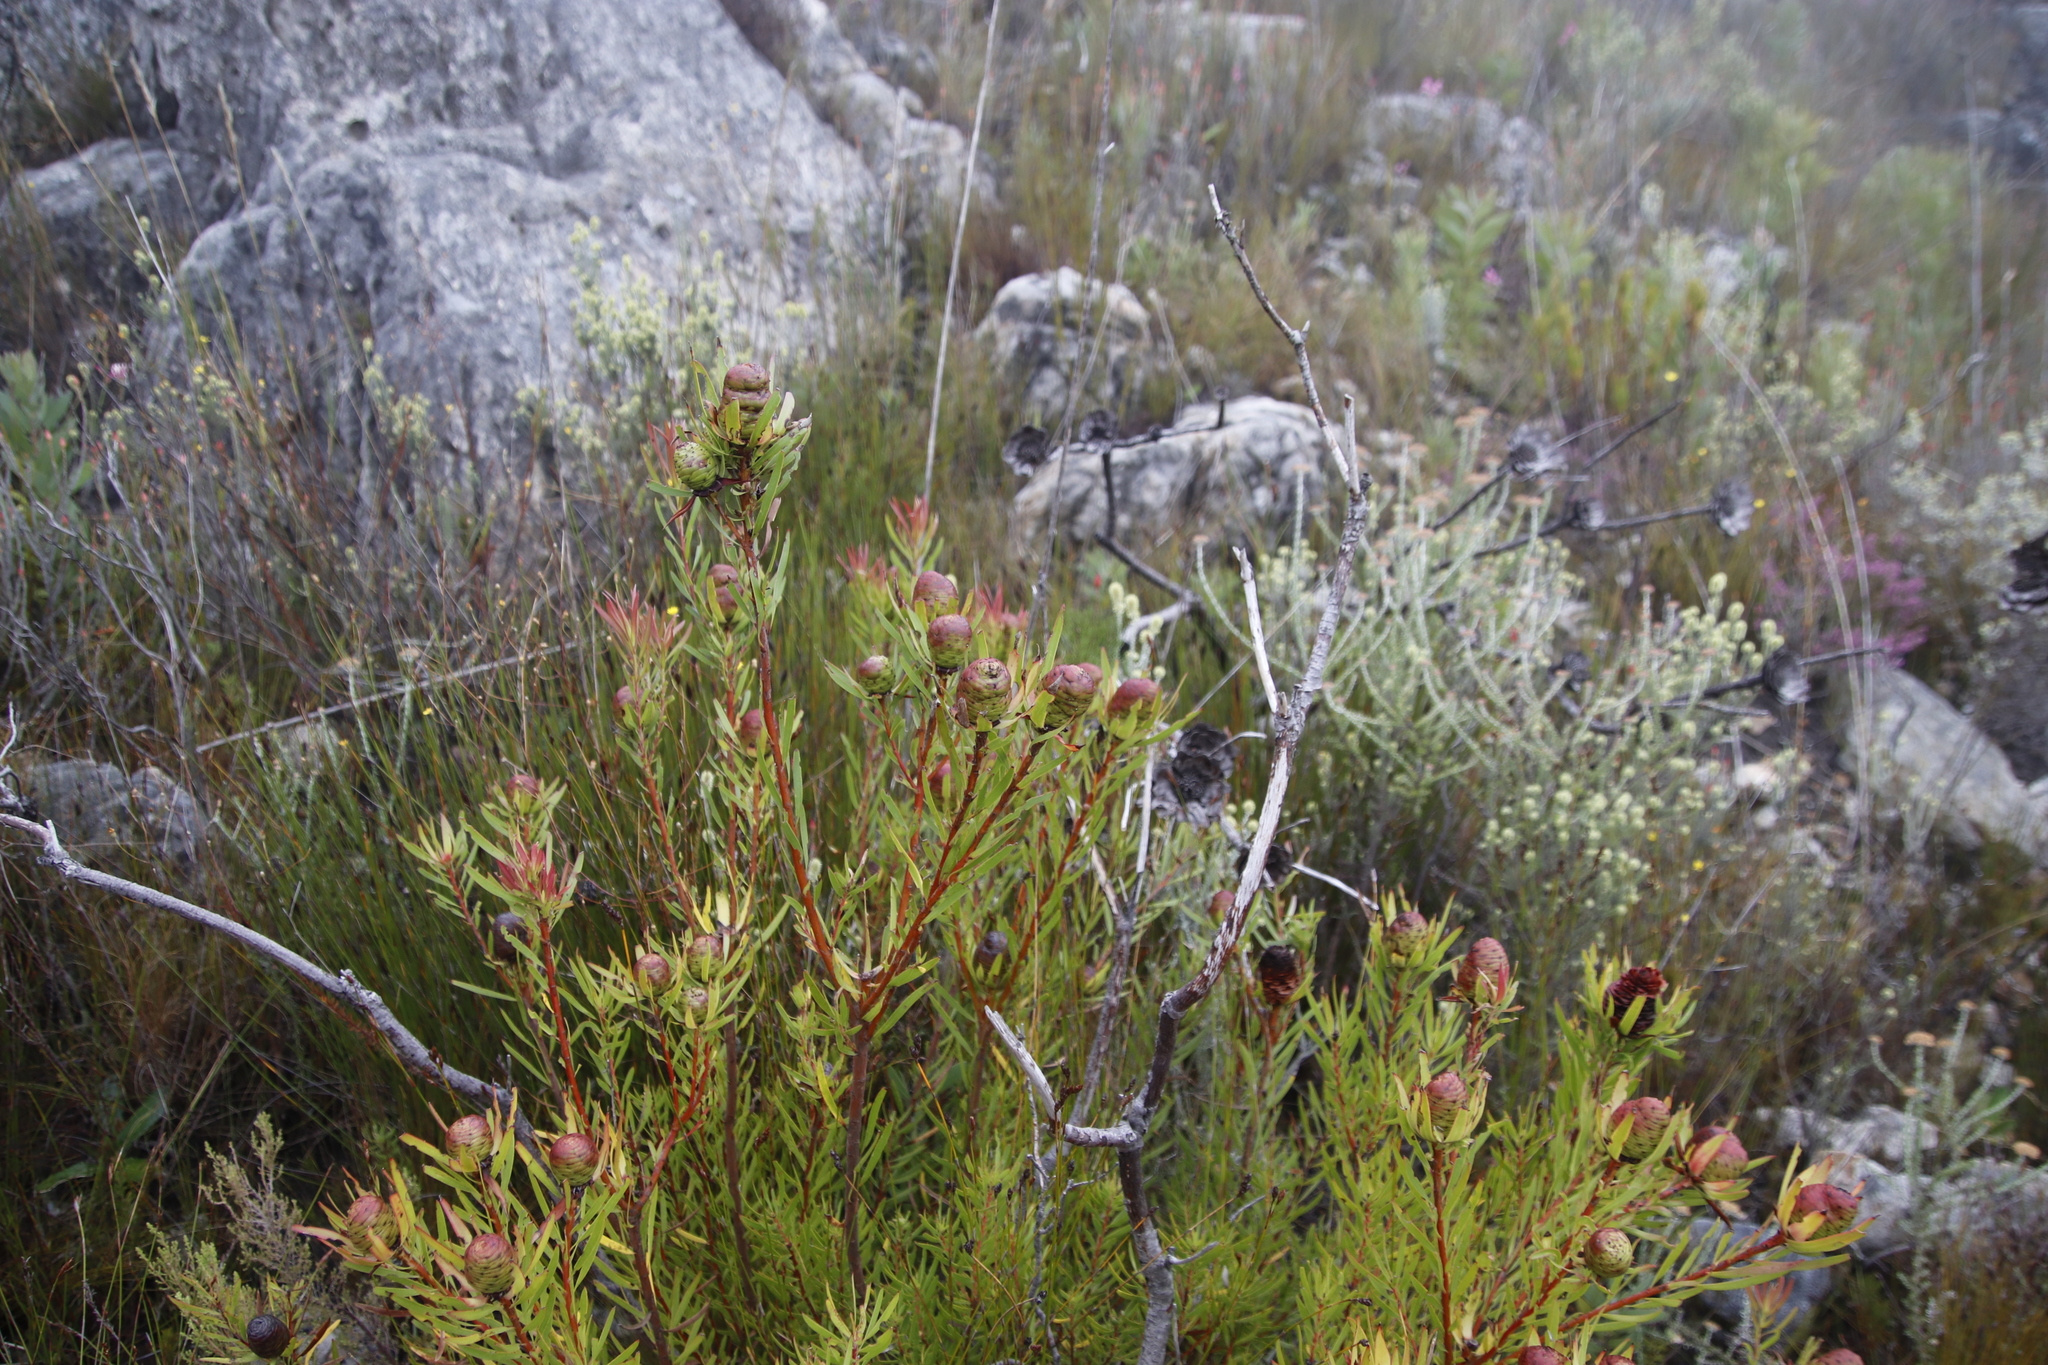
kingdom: Plantae
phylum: Tracheophyta
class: Magnoliopsida
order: Proteales
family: Proteaceae
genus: Leucadendron
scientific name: Leucadendron spissifolium
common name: Spear-leaf conebush
